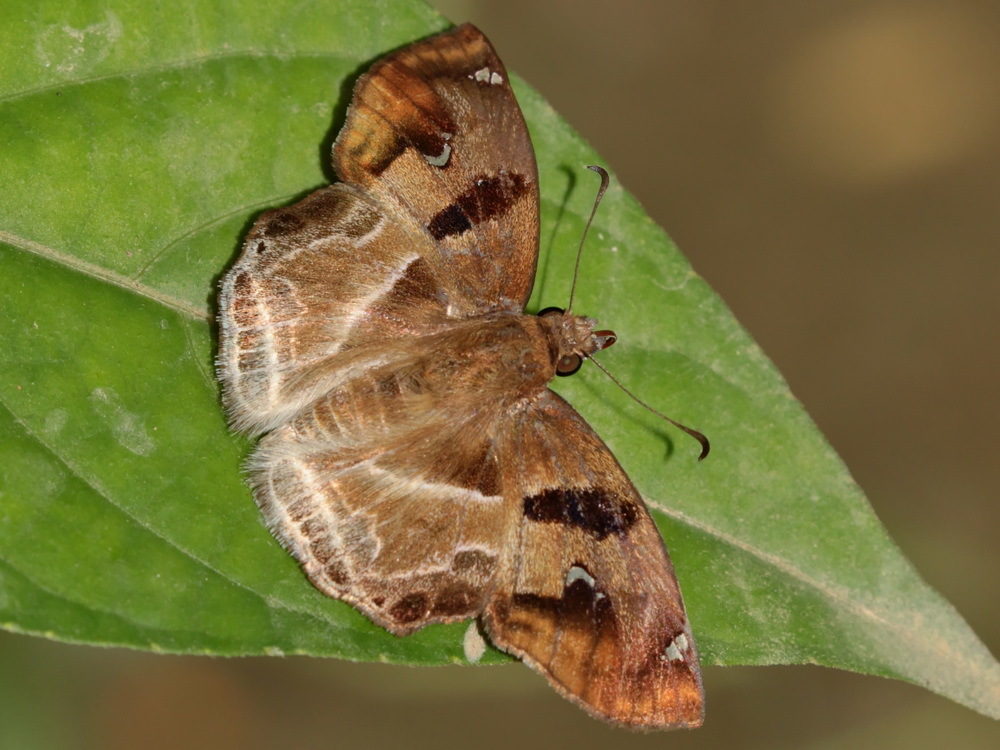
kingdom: Animalia
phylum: Arthropoda
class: Insecta
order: Lepidoptera
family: Hesperiidae
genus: Odontoptilum
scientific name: Odontoptilum angulata
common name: Chestnut banded angle
